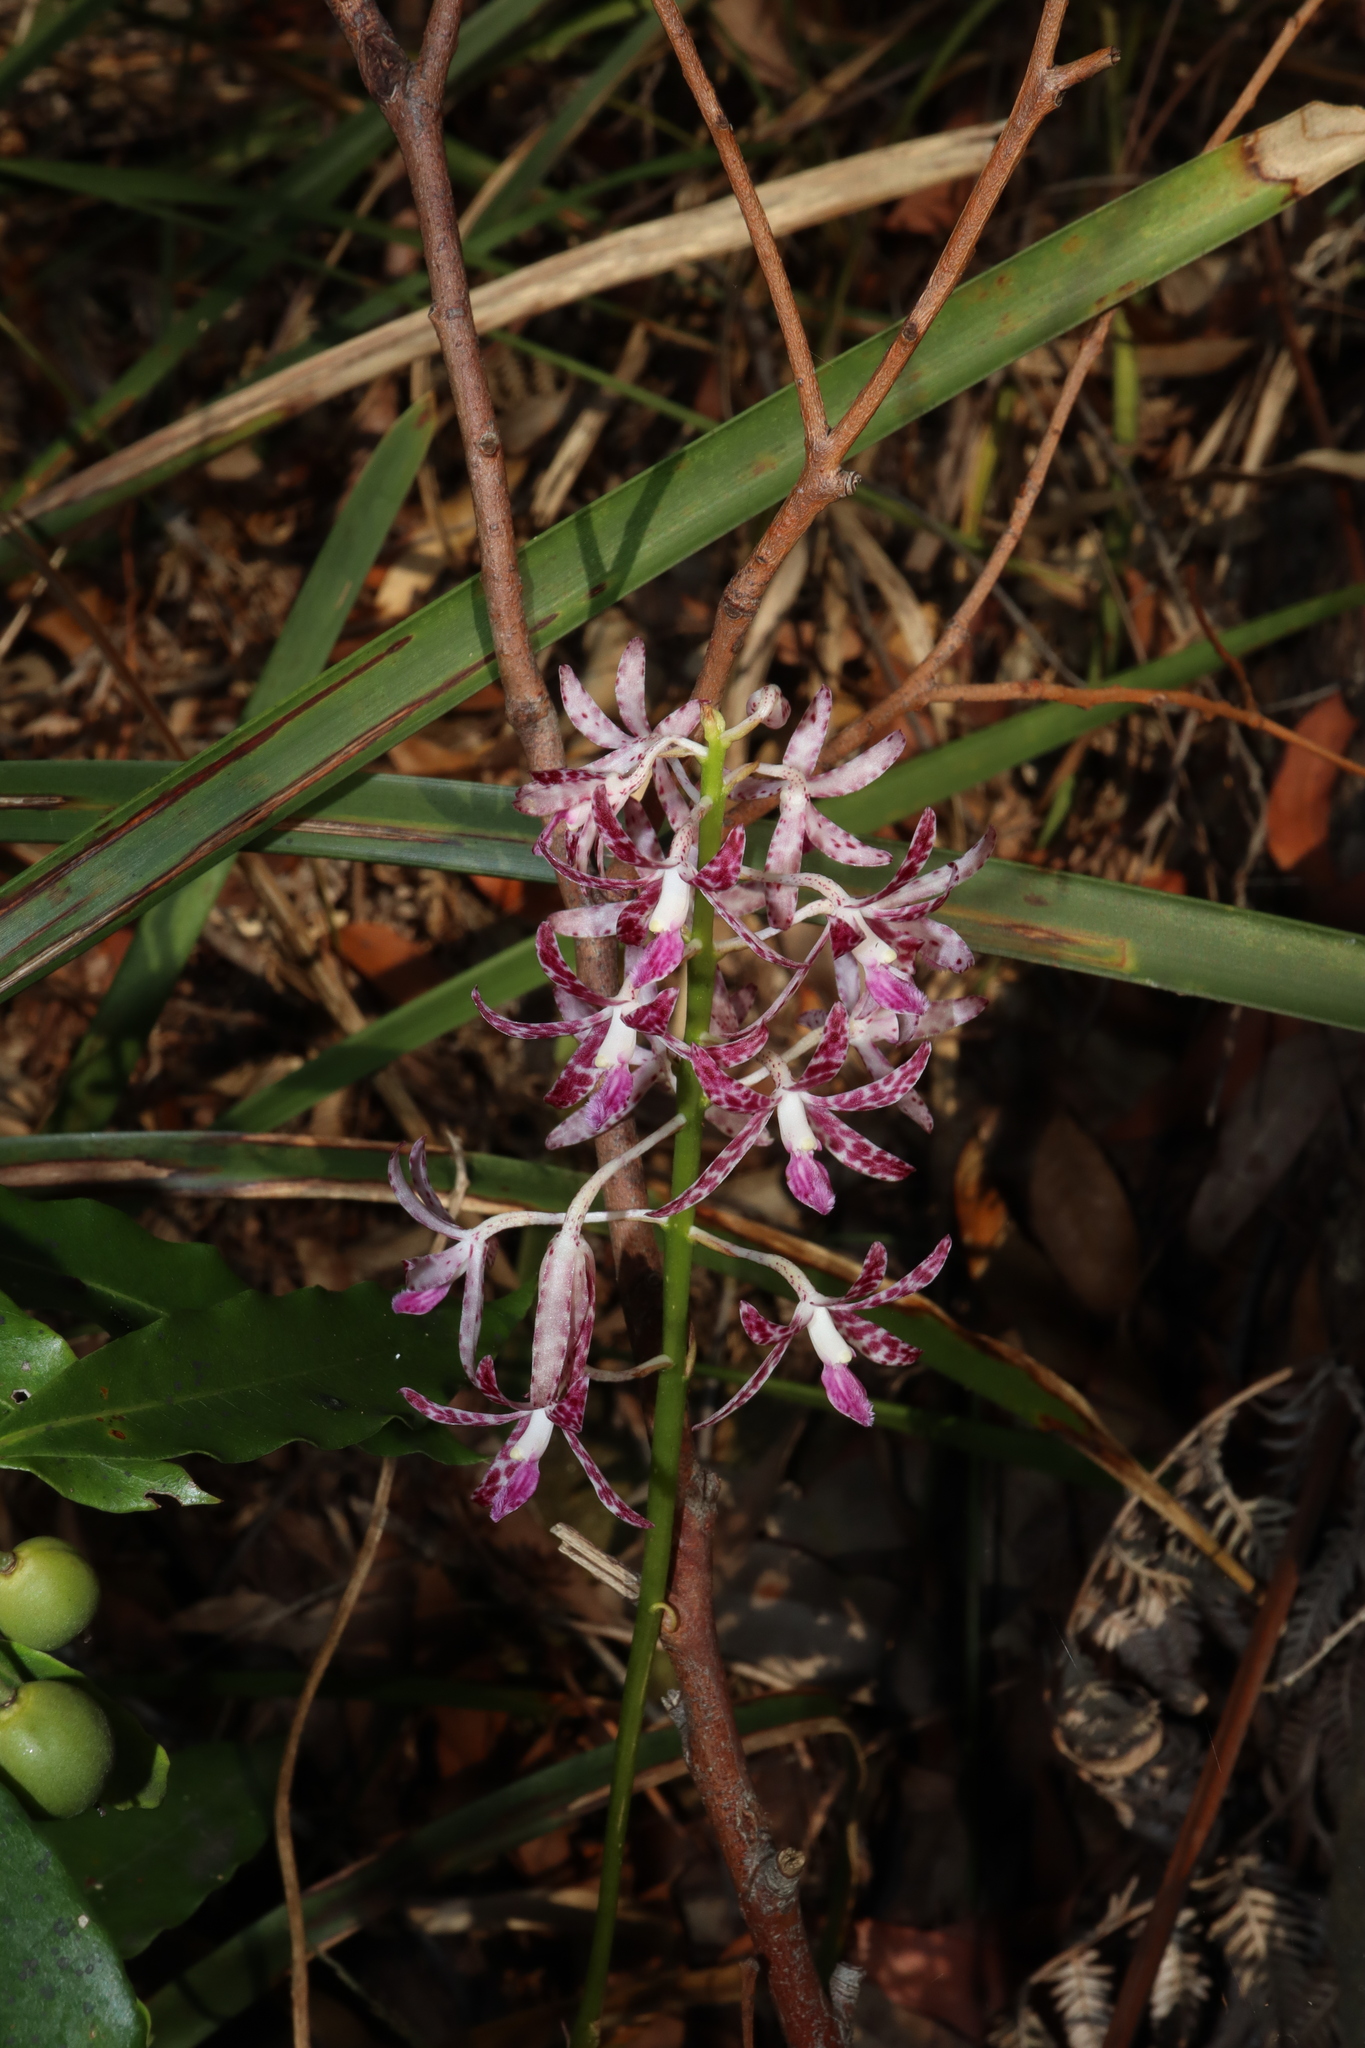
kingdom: Plantae
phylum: Tracheophyta
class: Liliopsida
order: Asparagales
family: Orchidaceae
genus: Dipodium
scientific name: Dipodium variegatum
